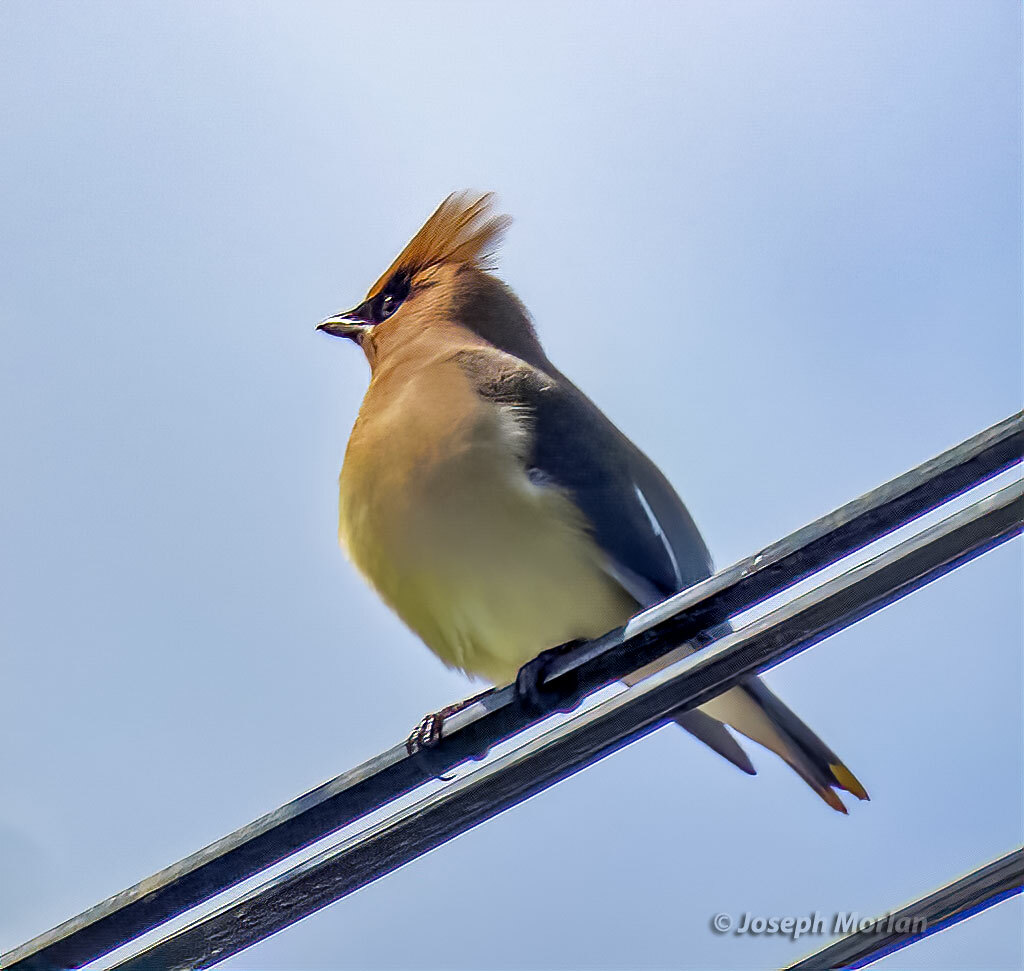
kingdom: Animalia
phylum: Chordata
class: Aves
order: Passeriformes
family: Bombycillidae
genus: Bombycilla
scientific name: Bombycilla cedrorum
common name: Cedar waxwing
